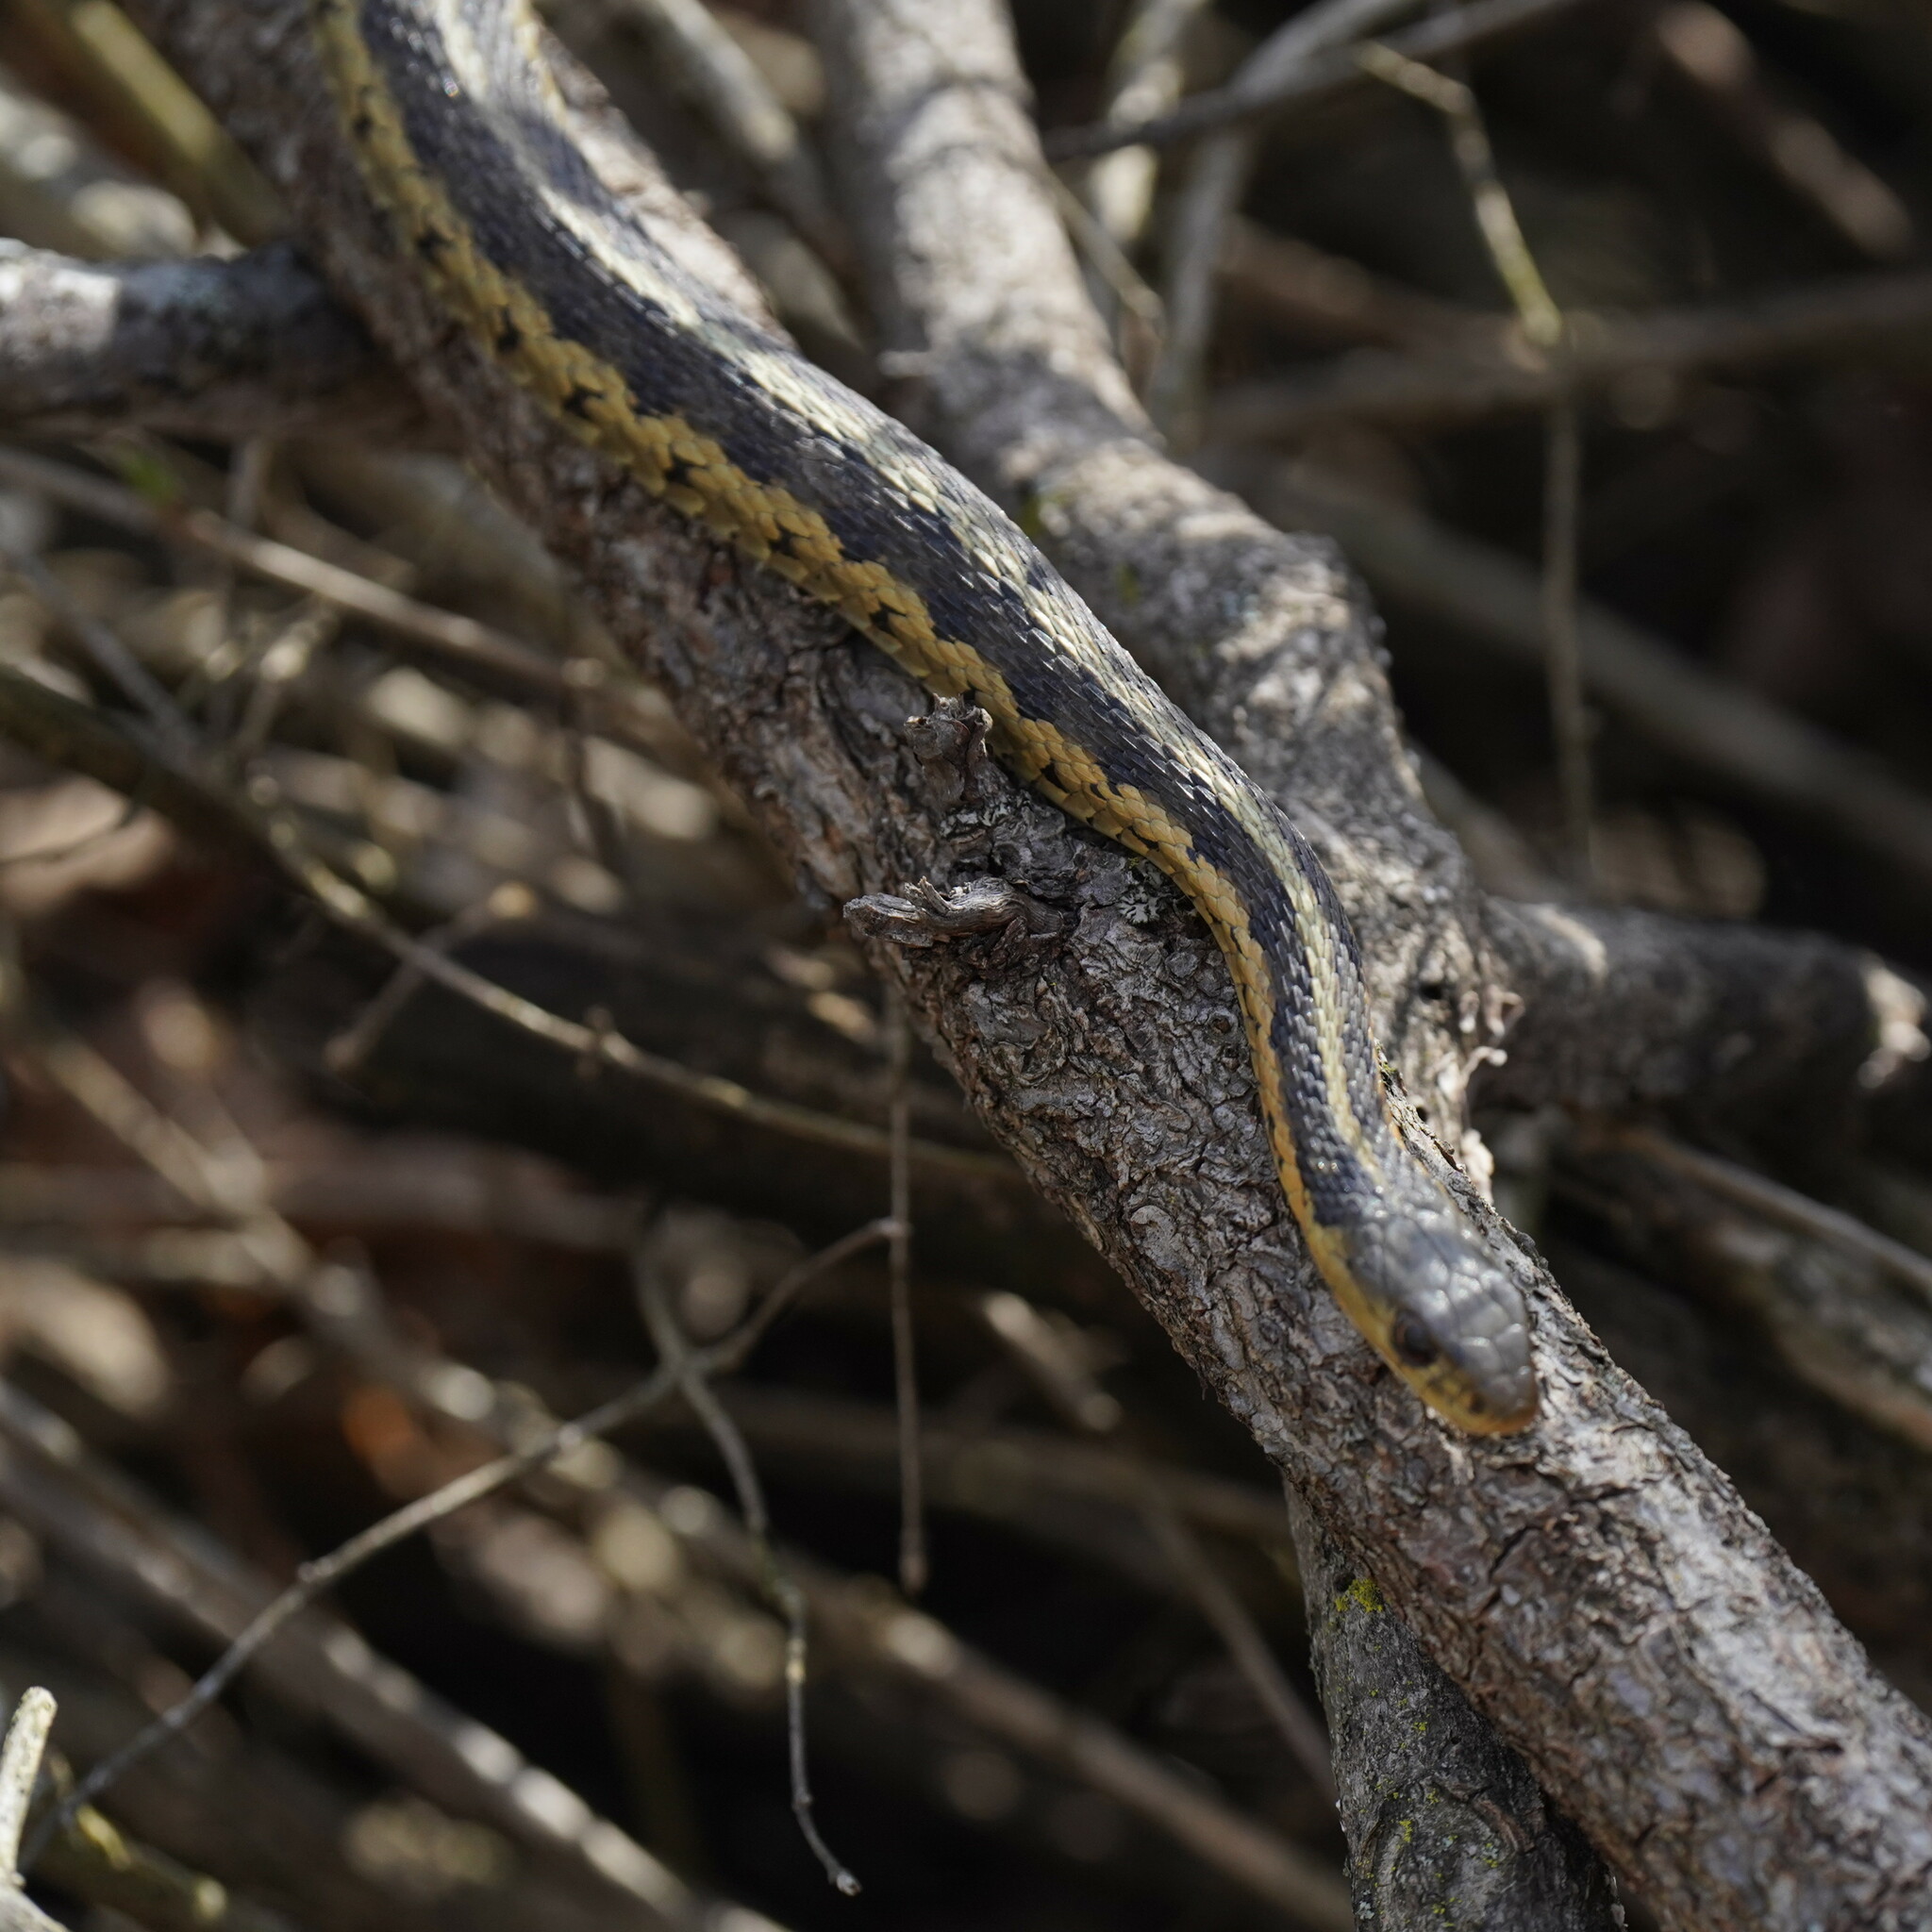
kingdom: Animalia
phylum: Chordata
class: Squamata
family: Colubridae
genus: Thamnophis
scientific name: Thamnophis sirtalis
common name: Common garter snake
